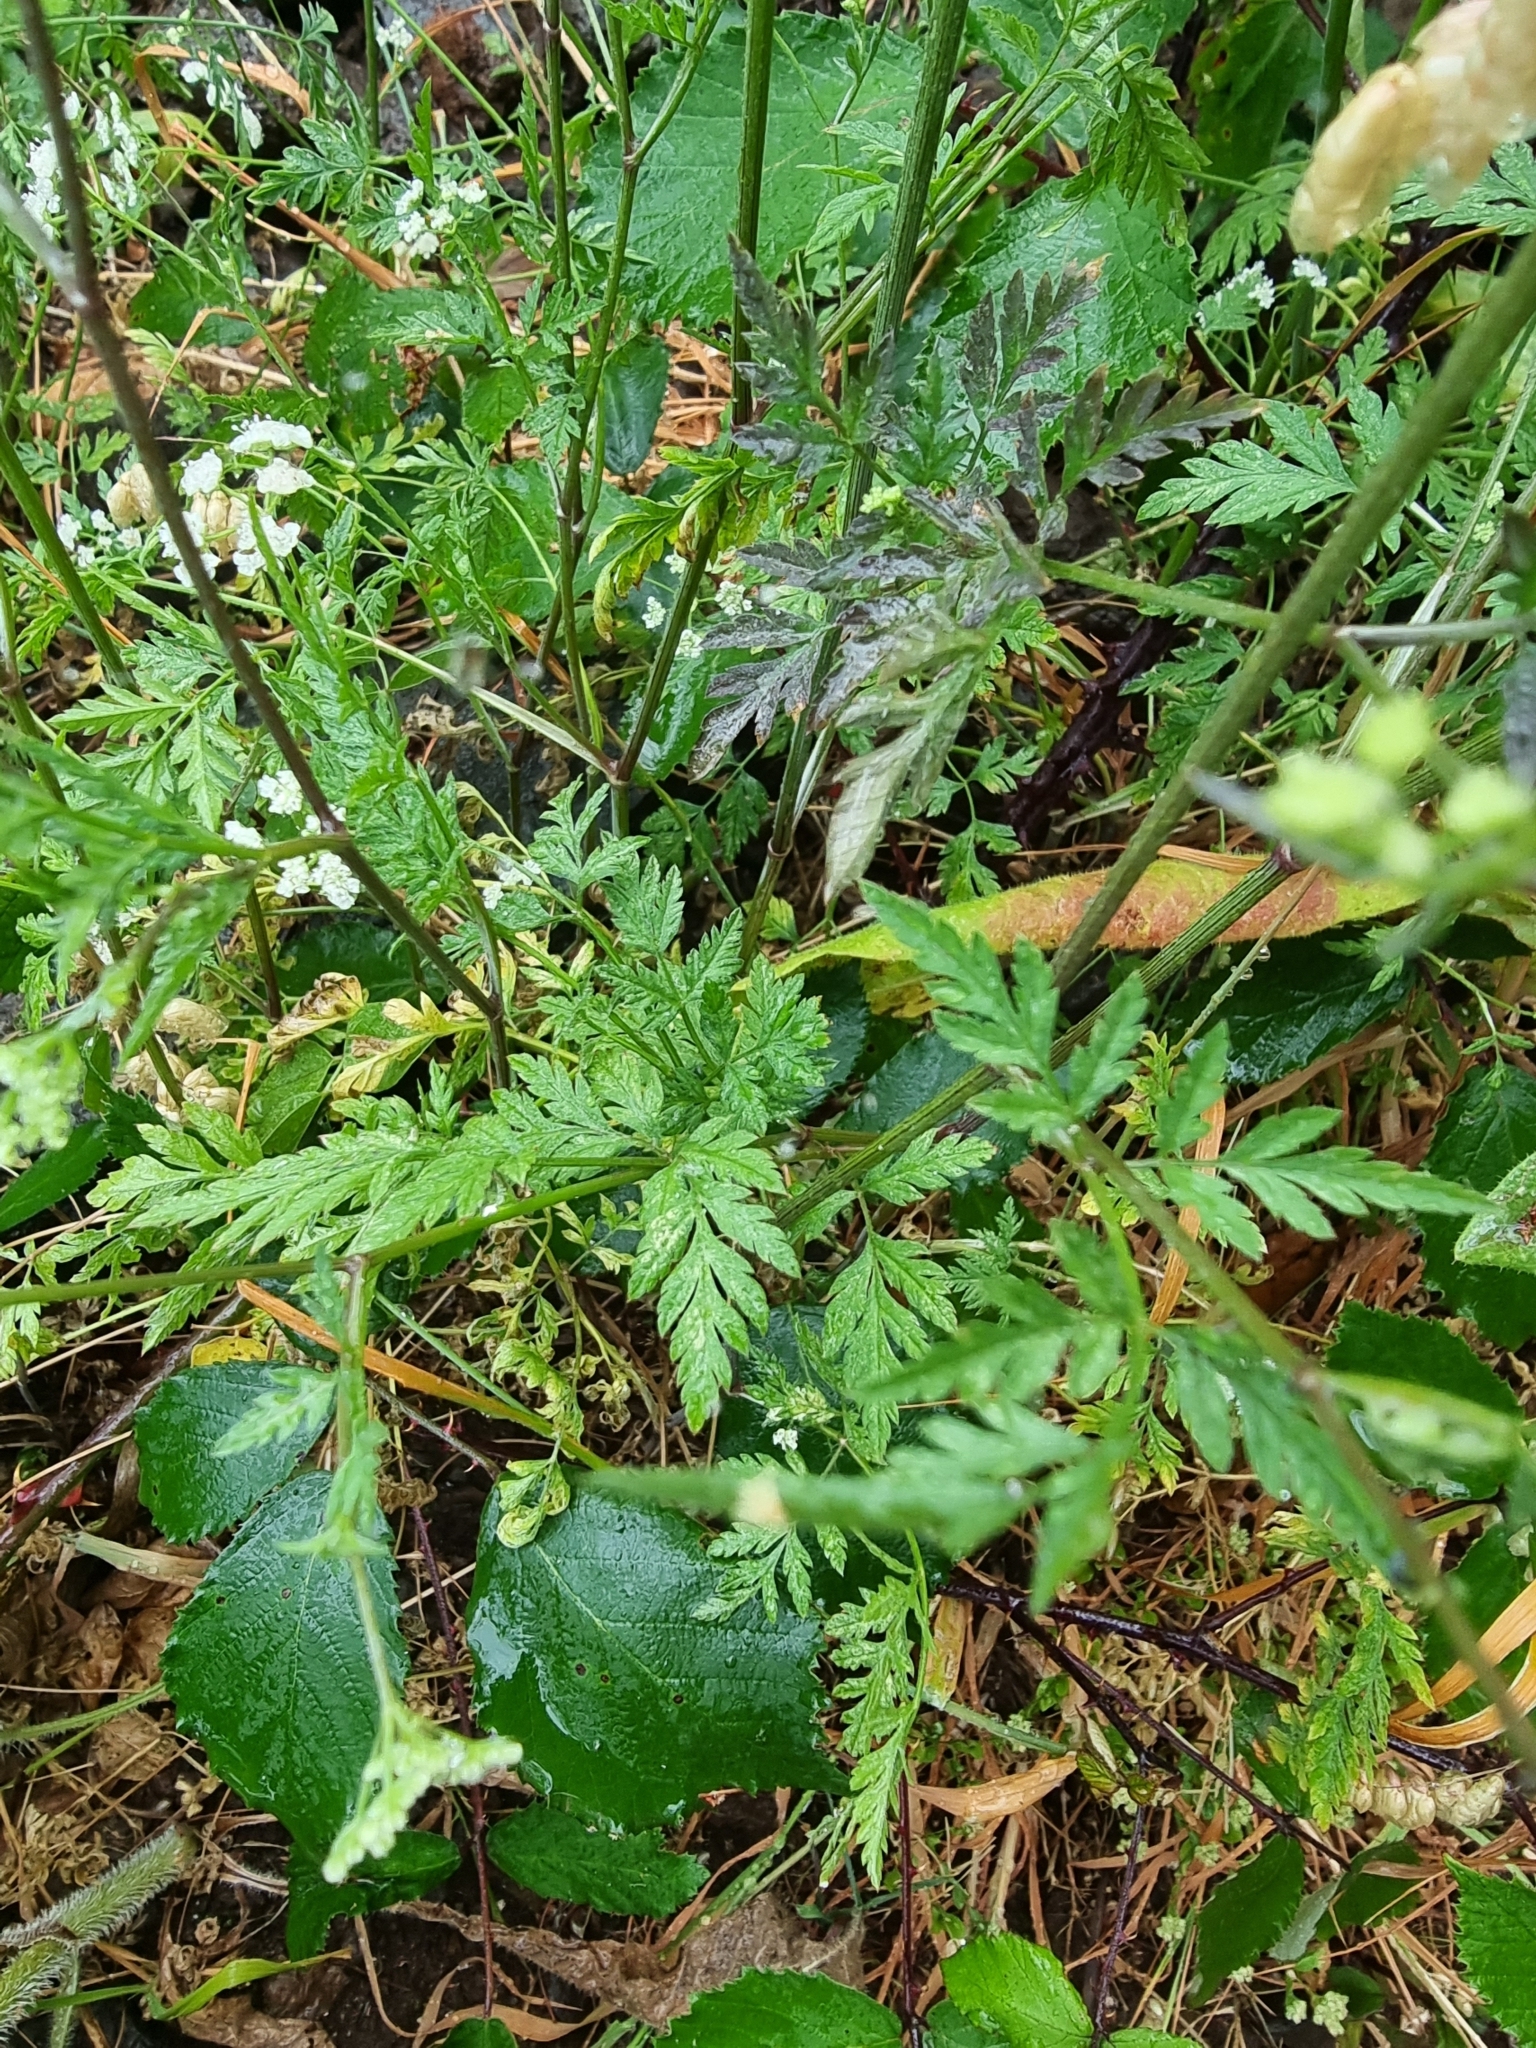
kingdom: Plantae
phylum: Tracheophyta
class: Magnoliopsida
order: Apiales
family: Apiaceae
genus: Torilis
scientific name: Torilis arvensis
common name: Spreading hedge-parsley
